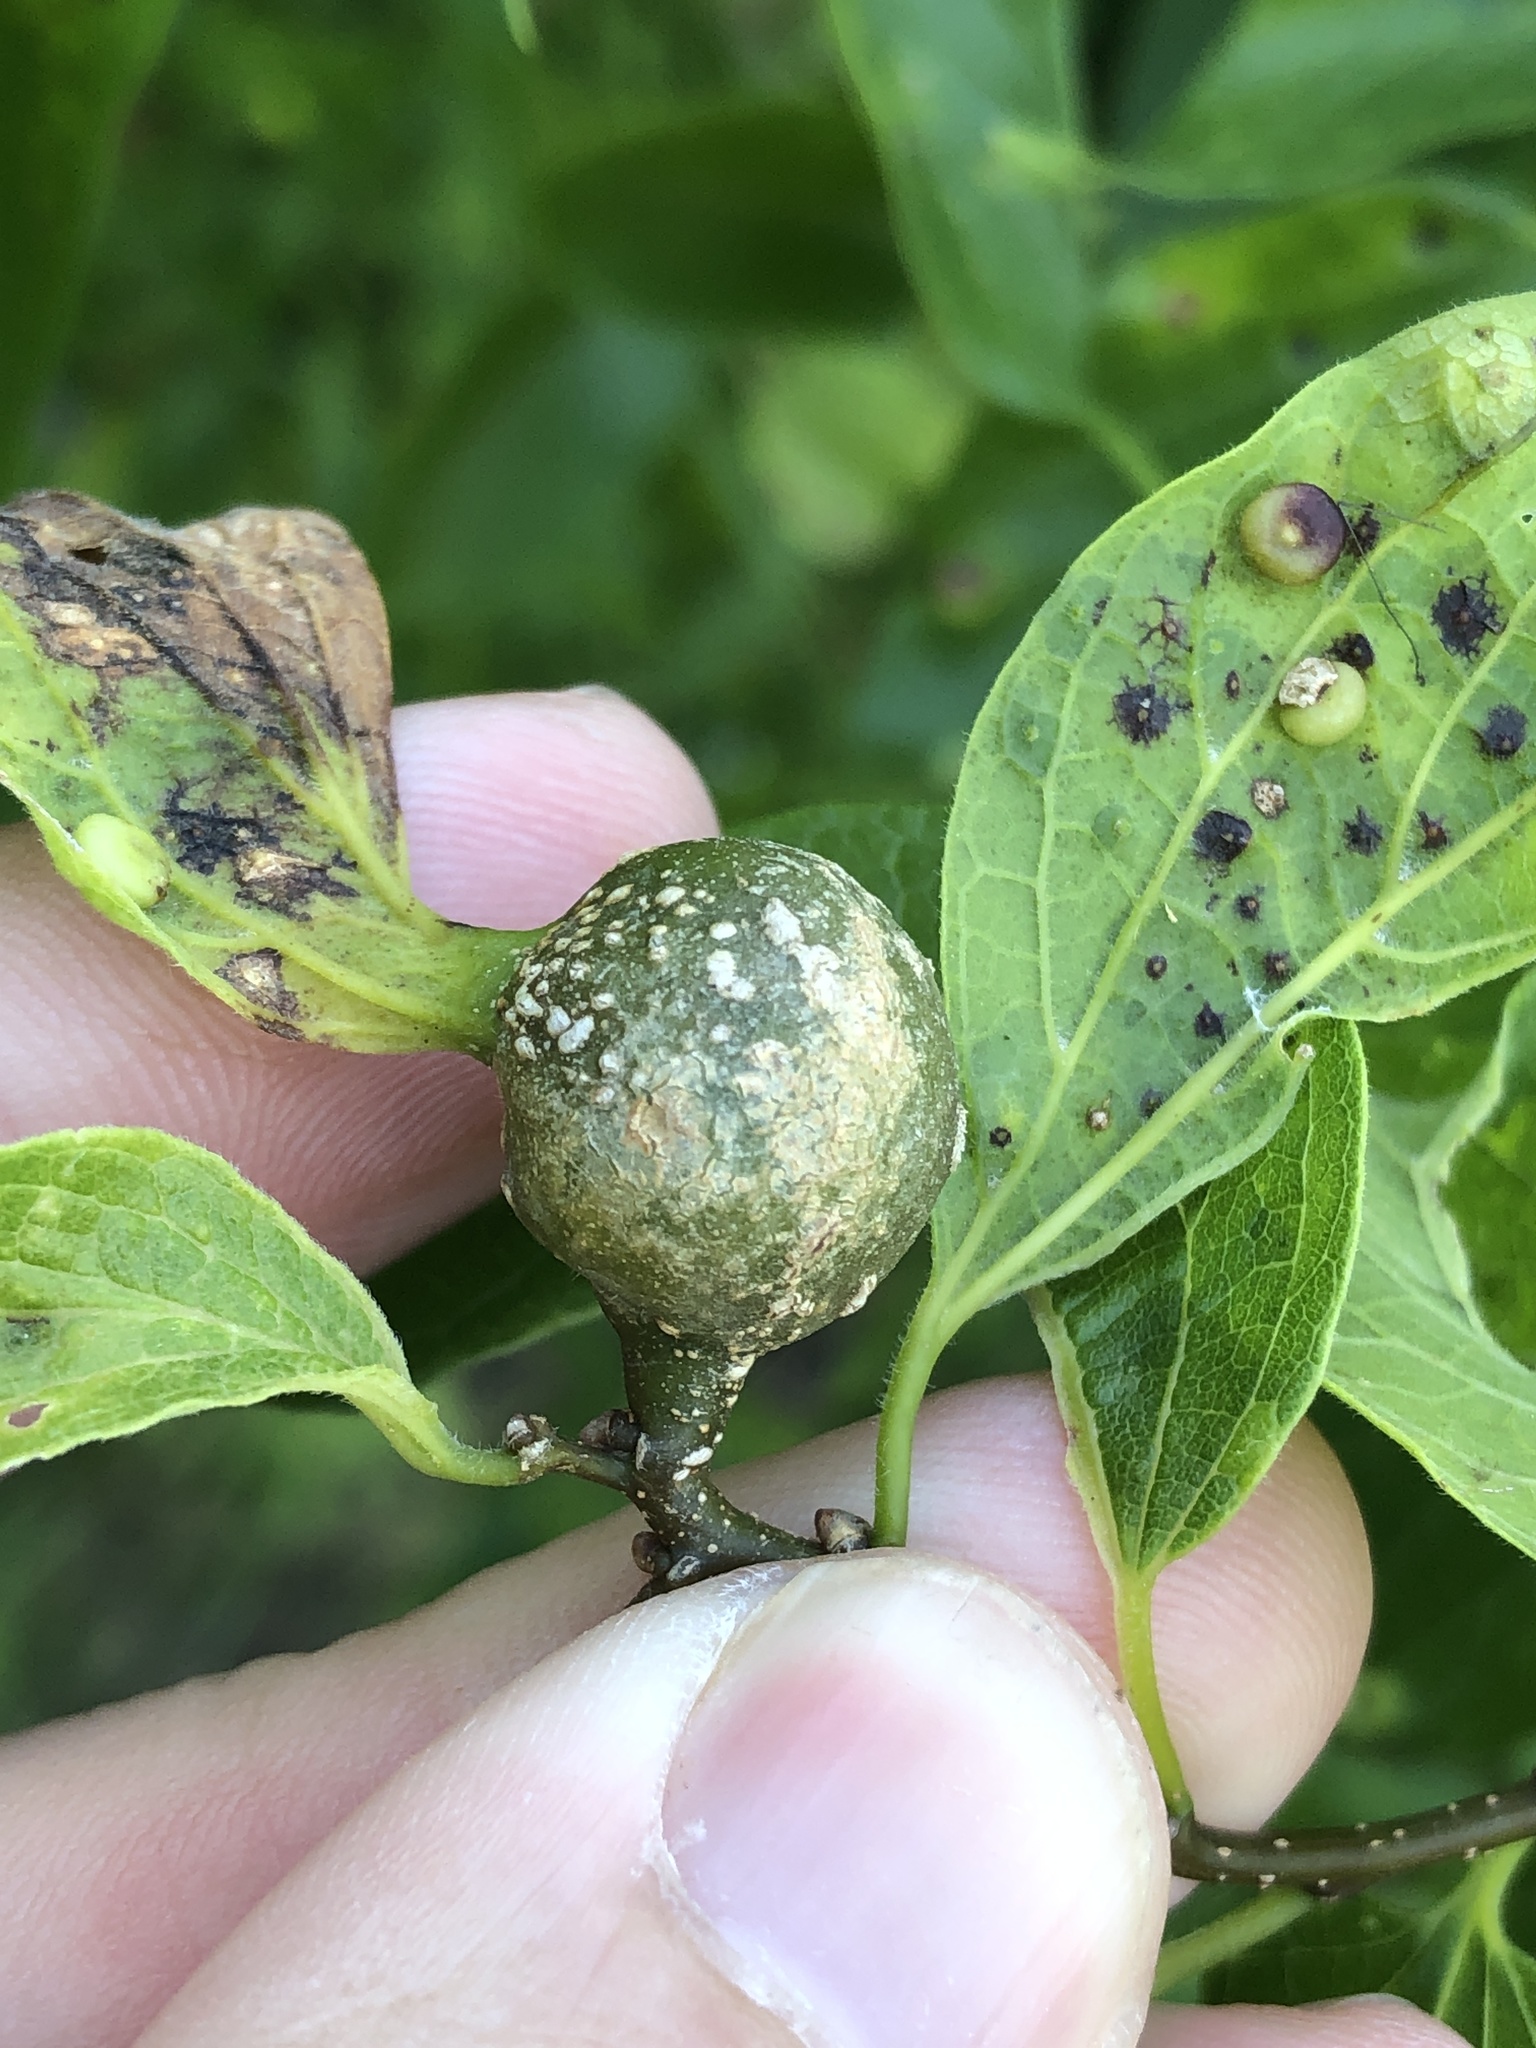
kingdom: Animalia
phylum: Arthropoda
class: Insecta
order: Hemiptera
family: Aphalaridae
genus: Pachypsylla
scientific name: Pachypsylla venusta
